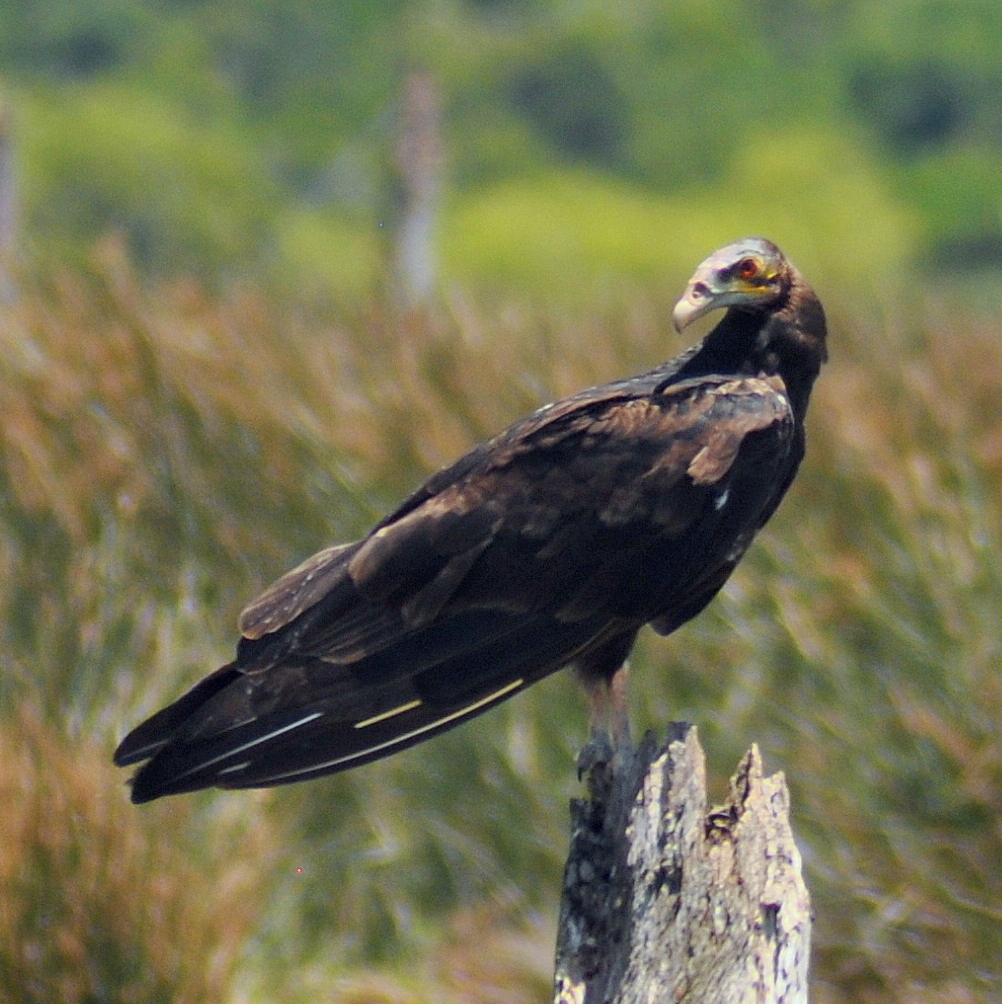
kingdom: Animalia
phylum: Chordata
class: Aves
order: Accipitriformes
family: Cathartidae
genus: Cathartes
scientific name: Cathartes burrovianus
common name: Lesser yellow-headed vulture
